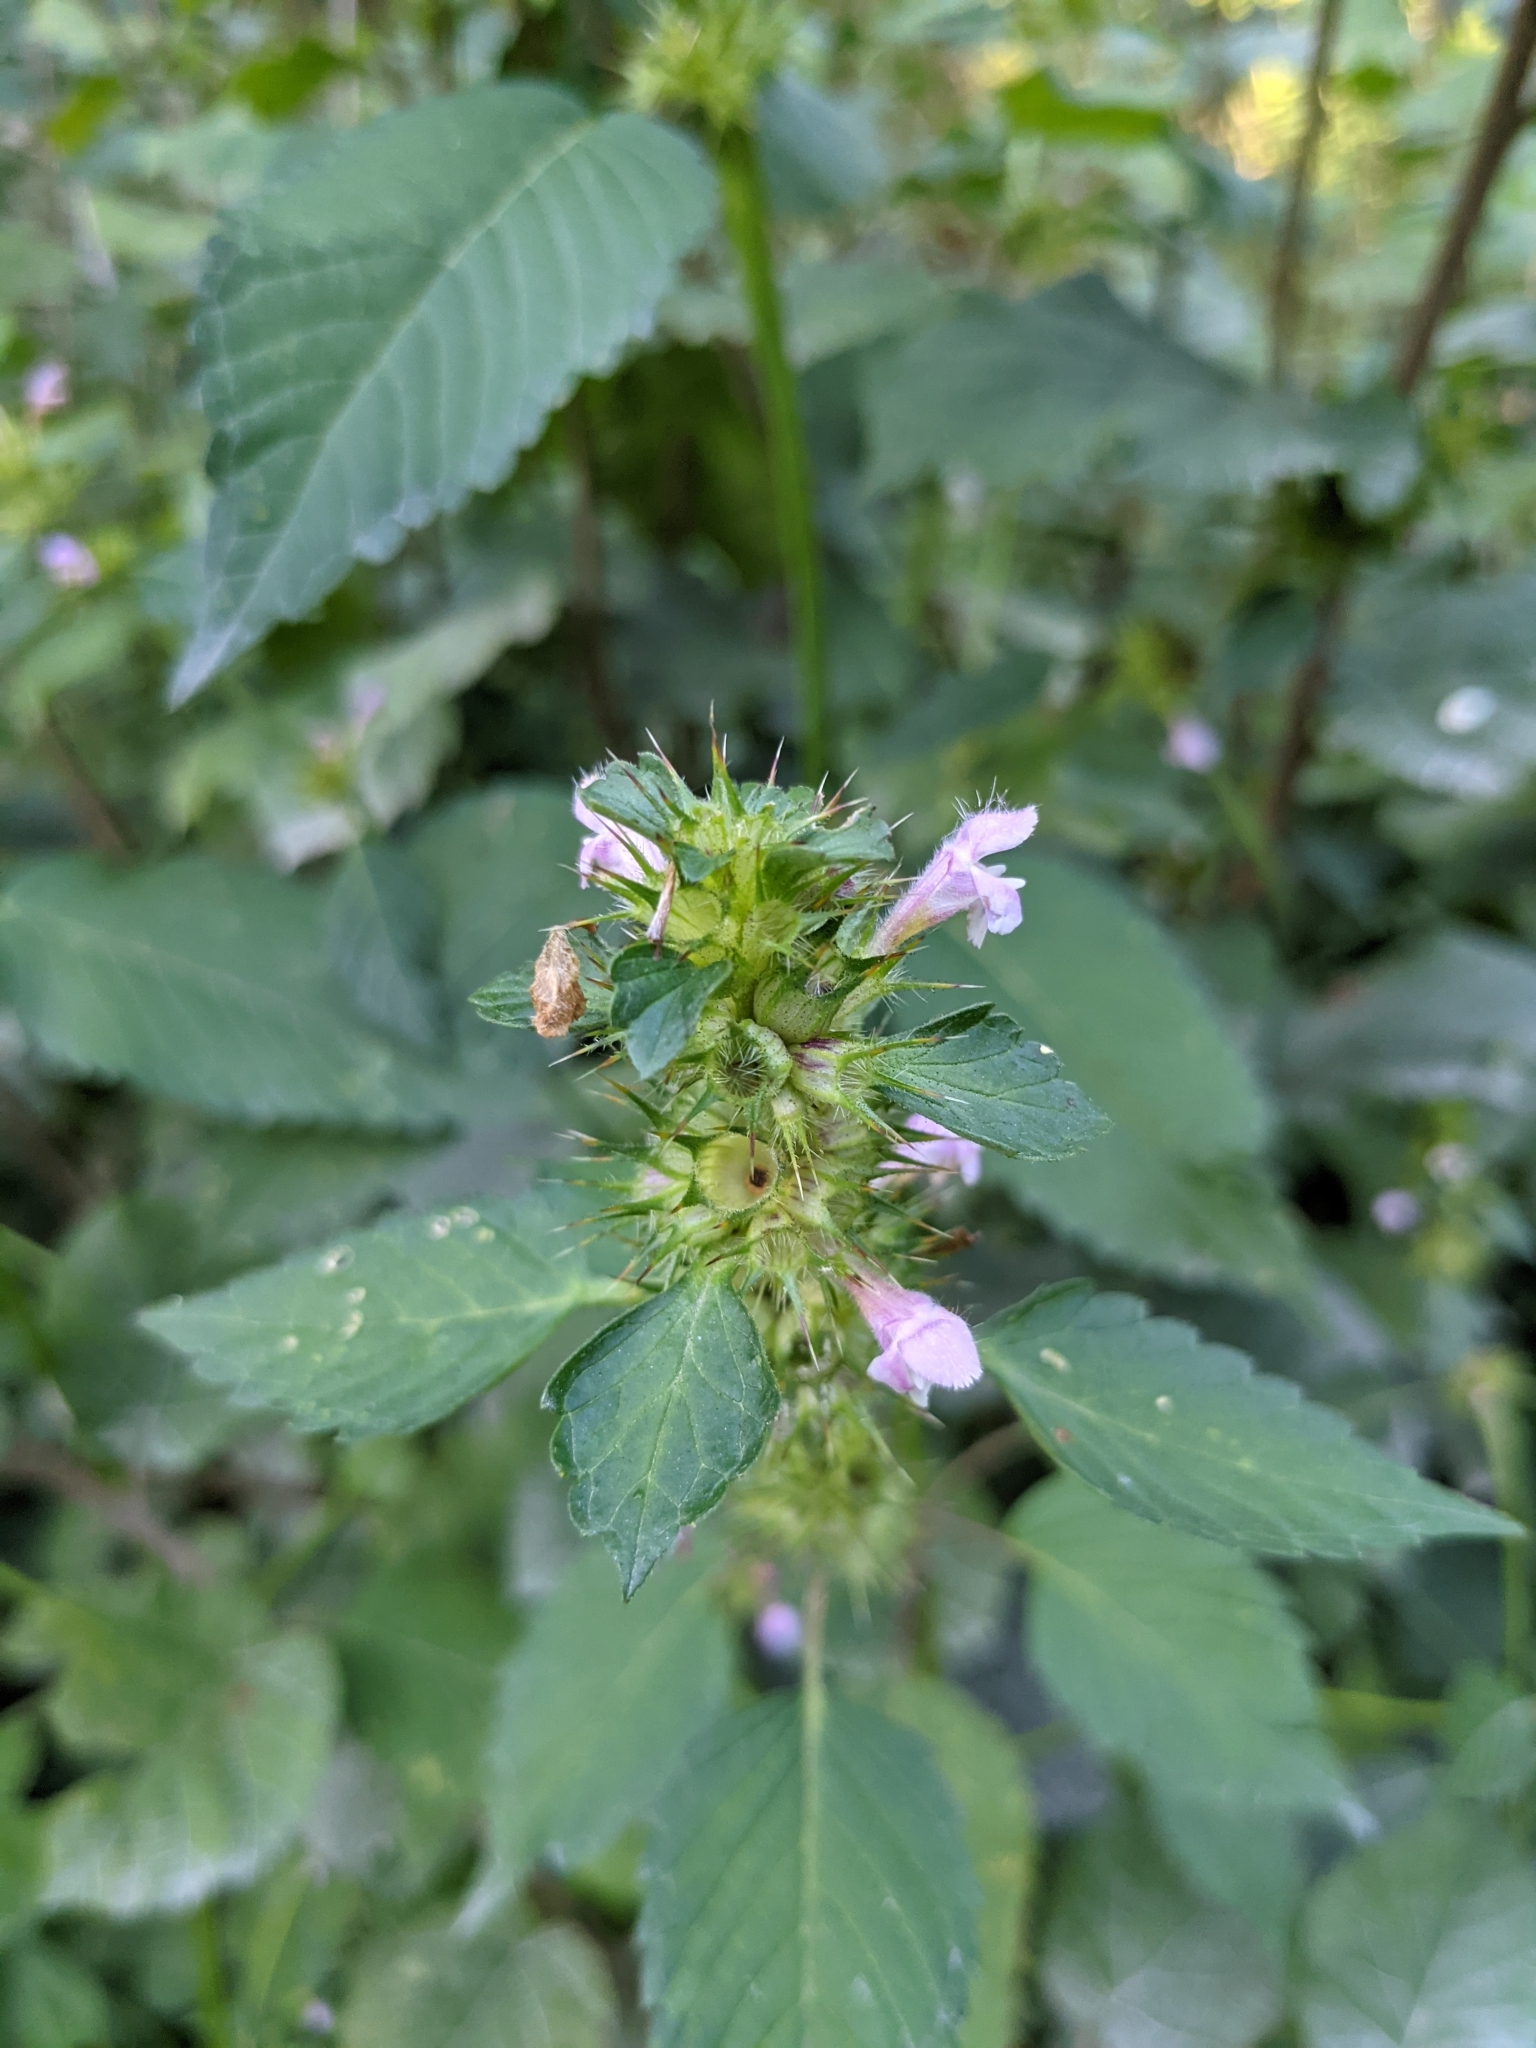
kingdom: Plantae
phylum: Tracheophyta
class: Magnoliopsida
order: Lamiales
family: Lamiaceae
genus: Galeopsis
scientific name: Galeopsis tetrahit
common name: Common hemp-nettle
